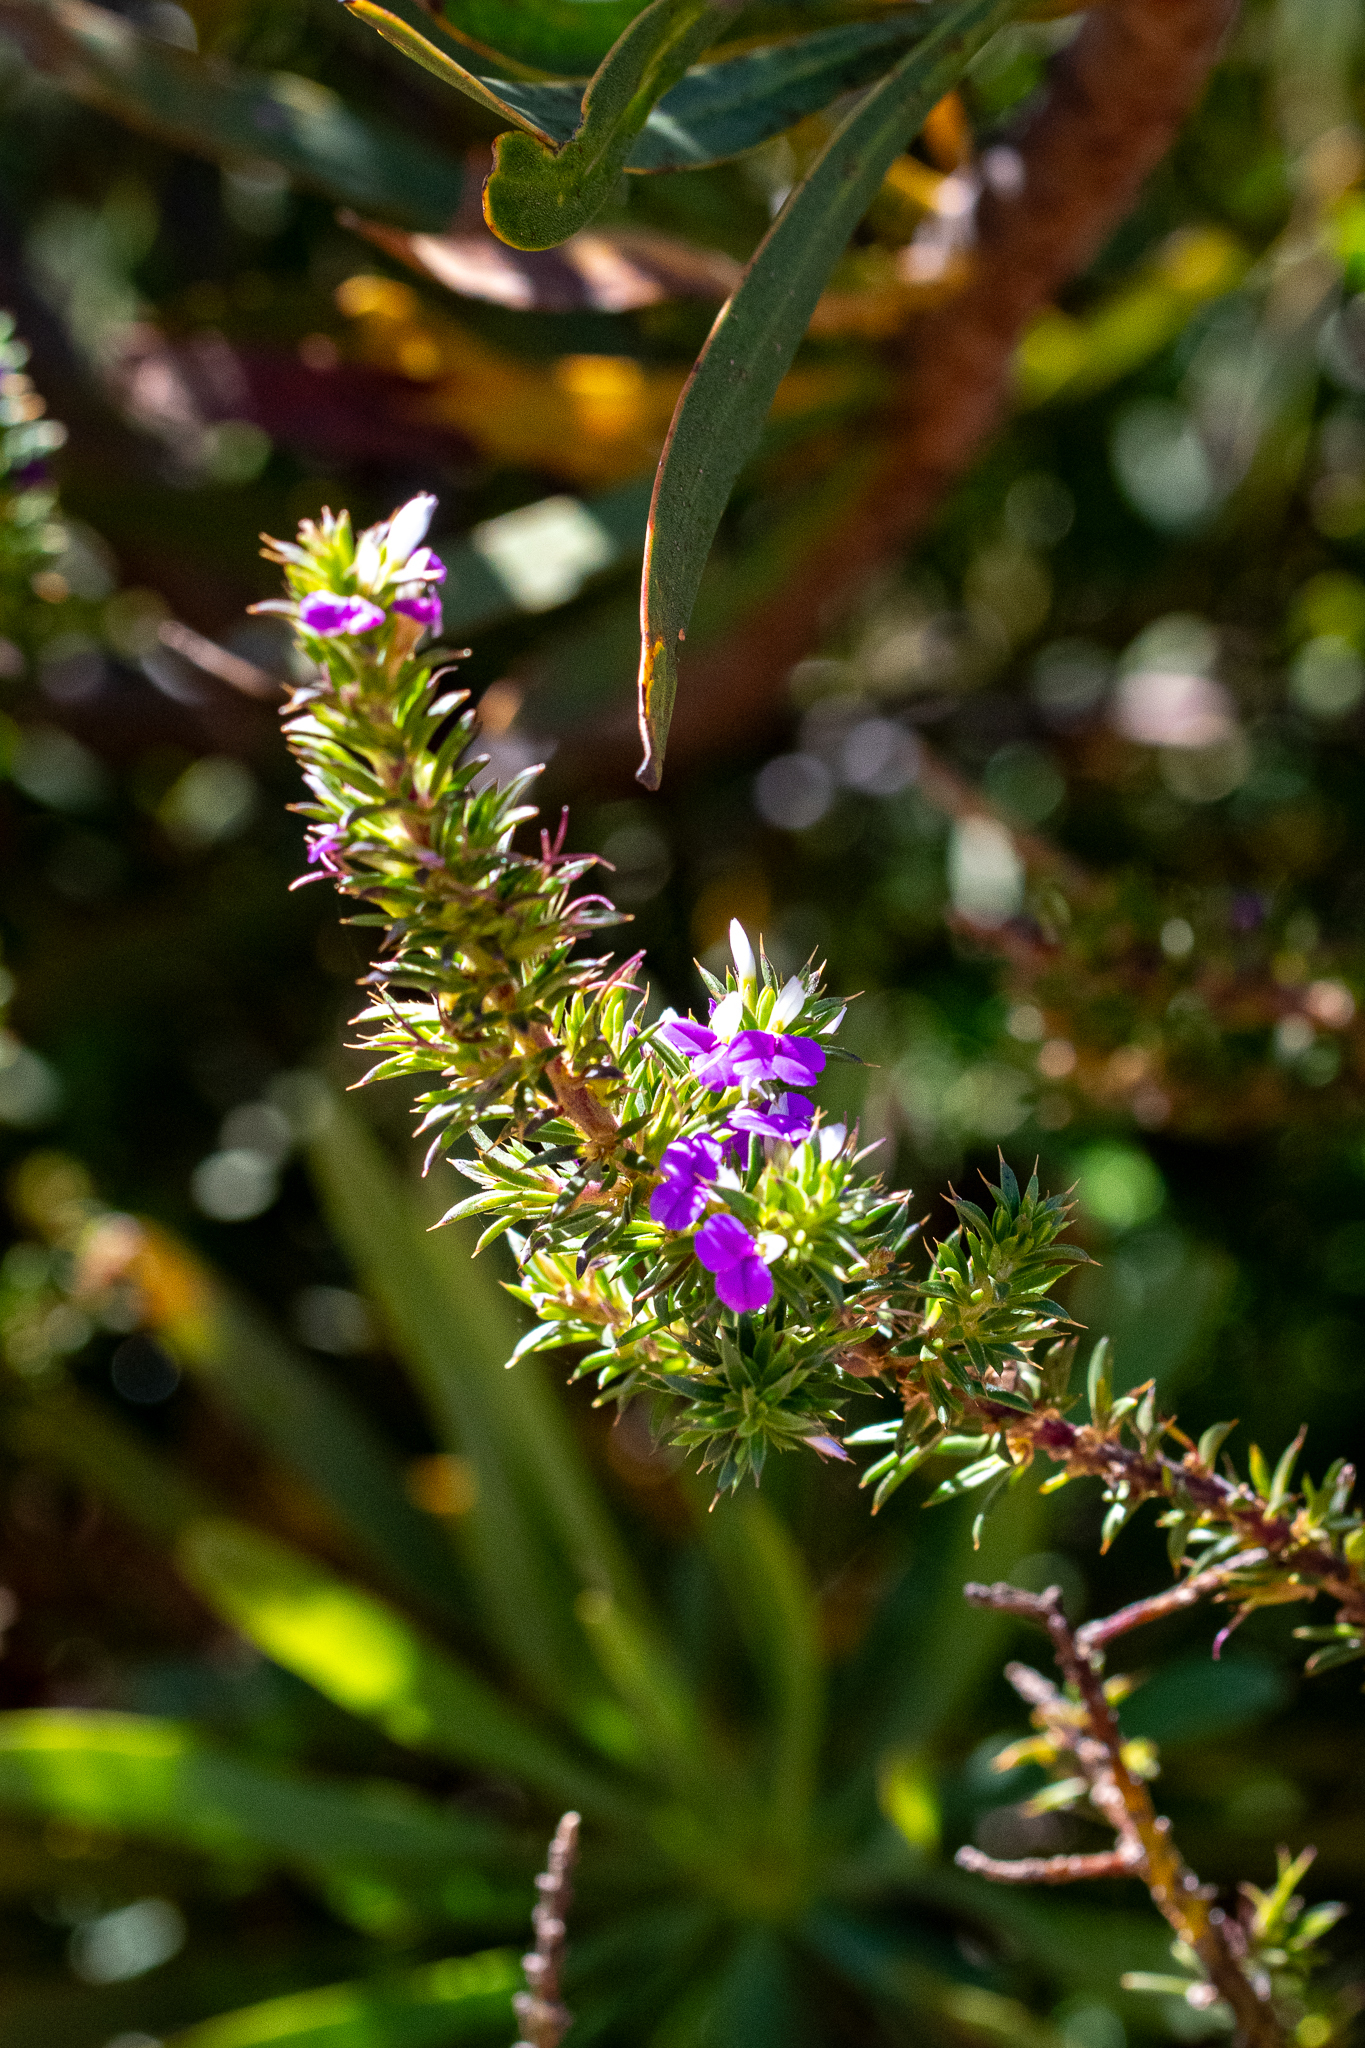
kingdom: Plantae
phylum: Tracheophyta
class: Magnoliopsida
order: Fabales
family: Polygalaceae
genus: Muraltia
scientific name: Muraltia heisteria
